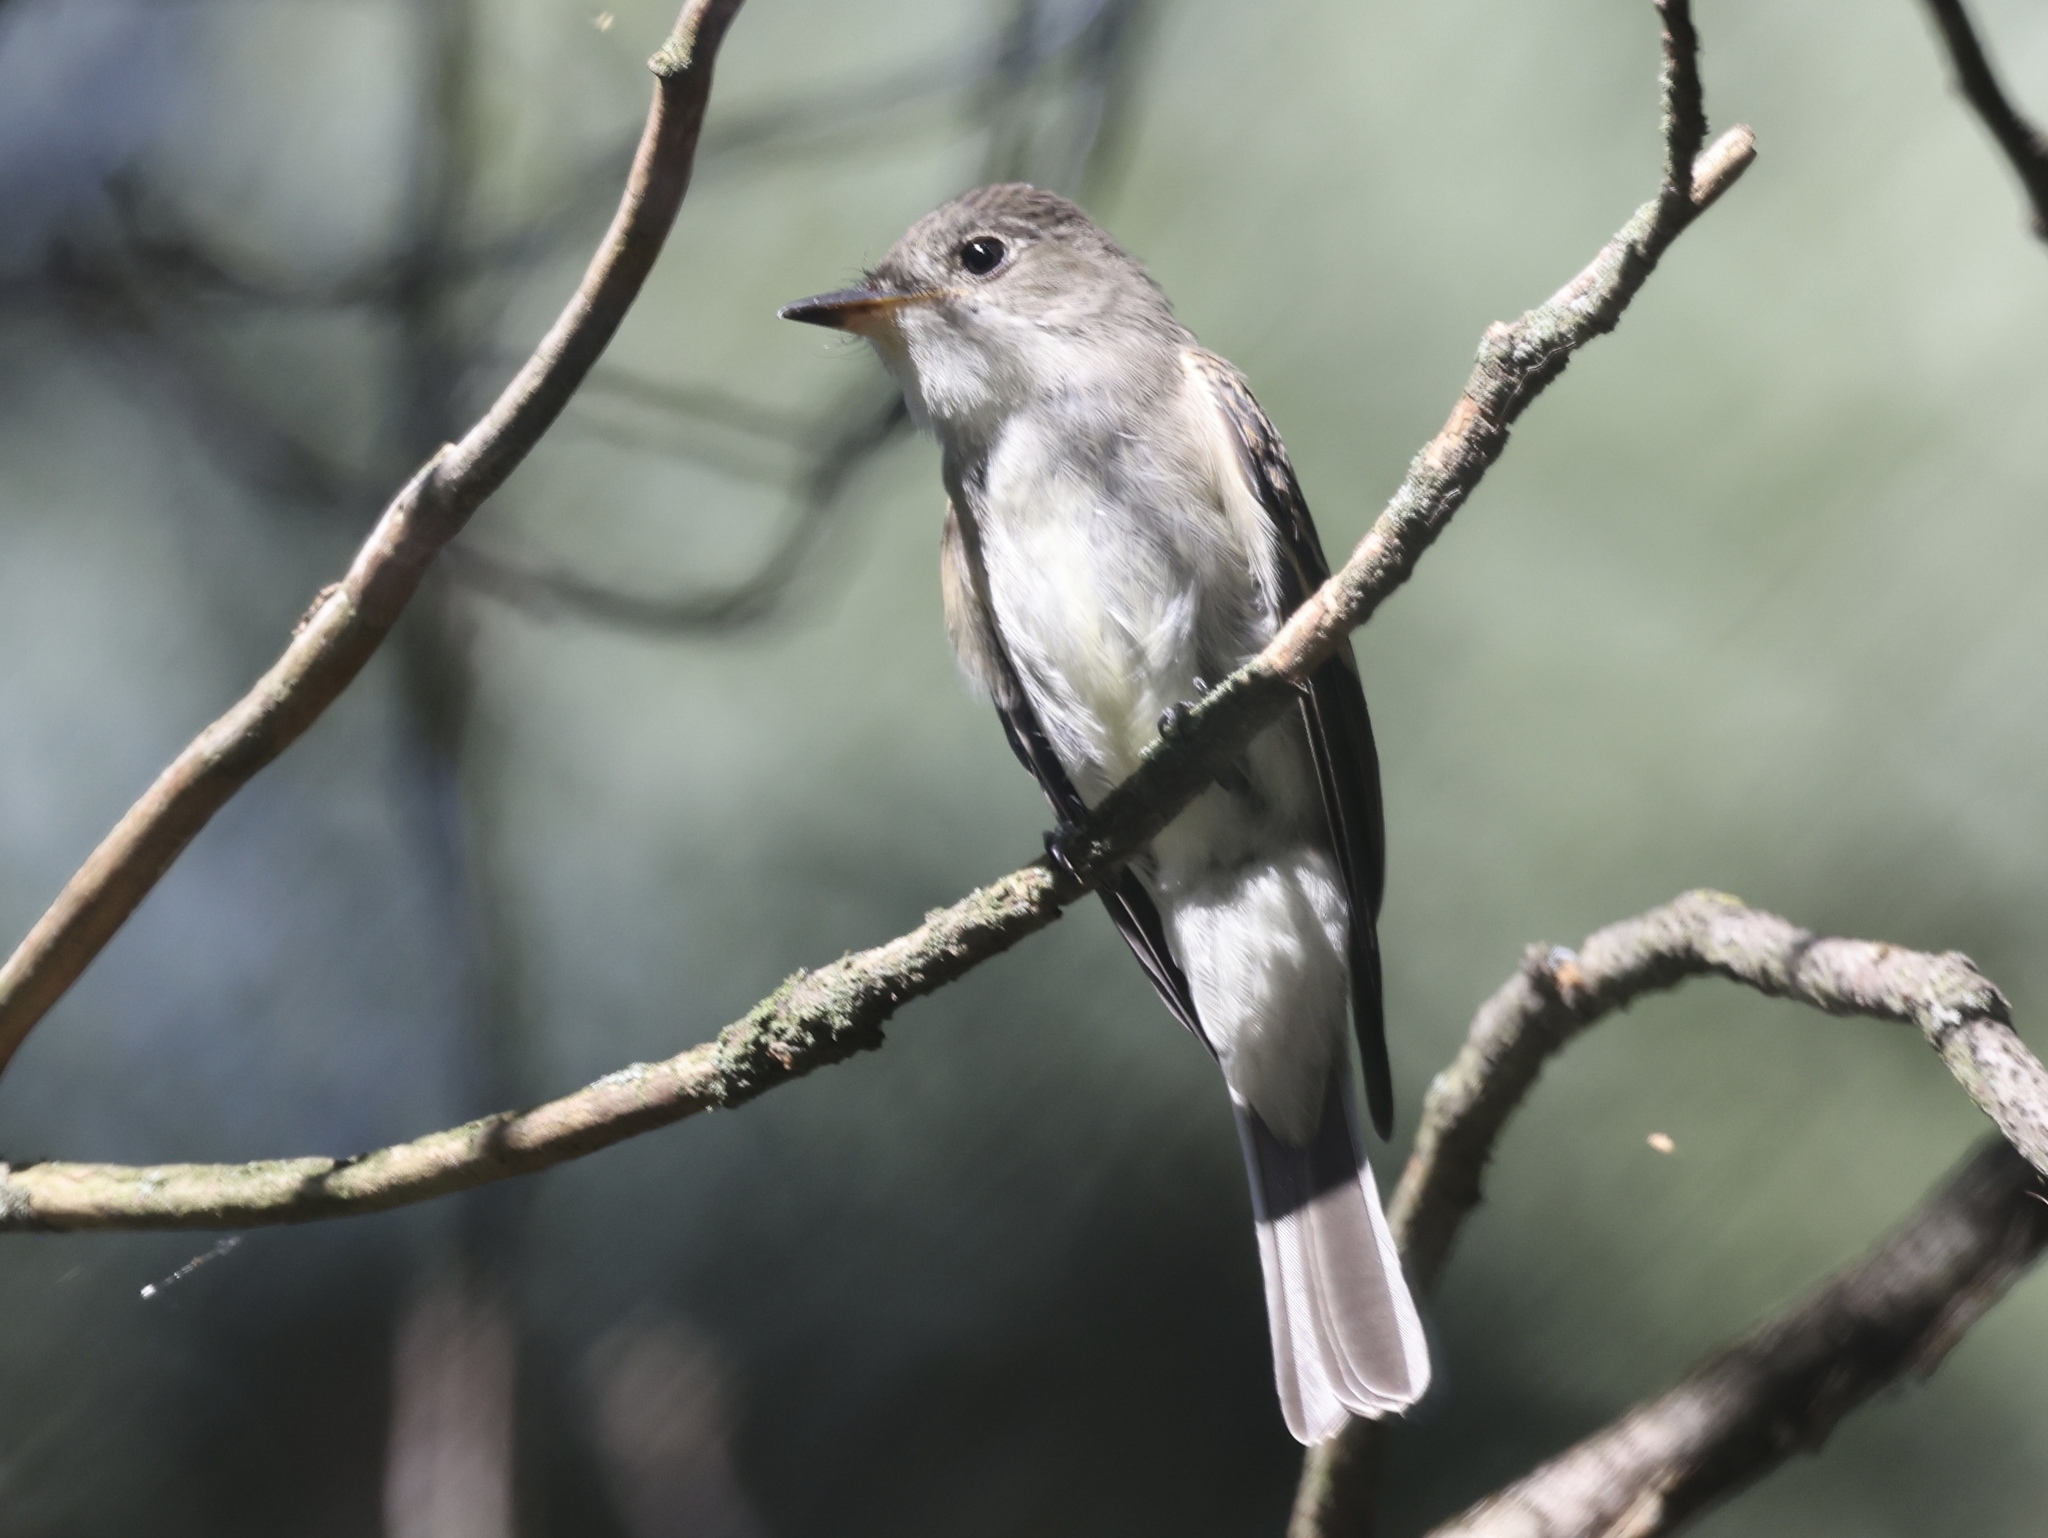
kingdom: Animalia
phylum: Chordata
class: Aves
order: Passeriformes
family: Tyrannidae
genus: Contopus
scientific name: Contopus virens
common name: Eastern wood-pewee
